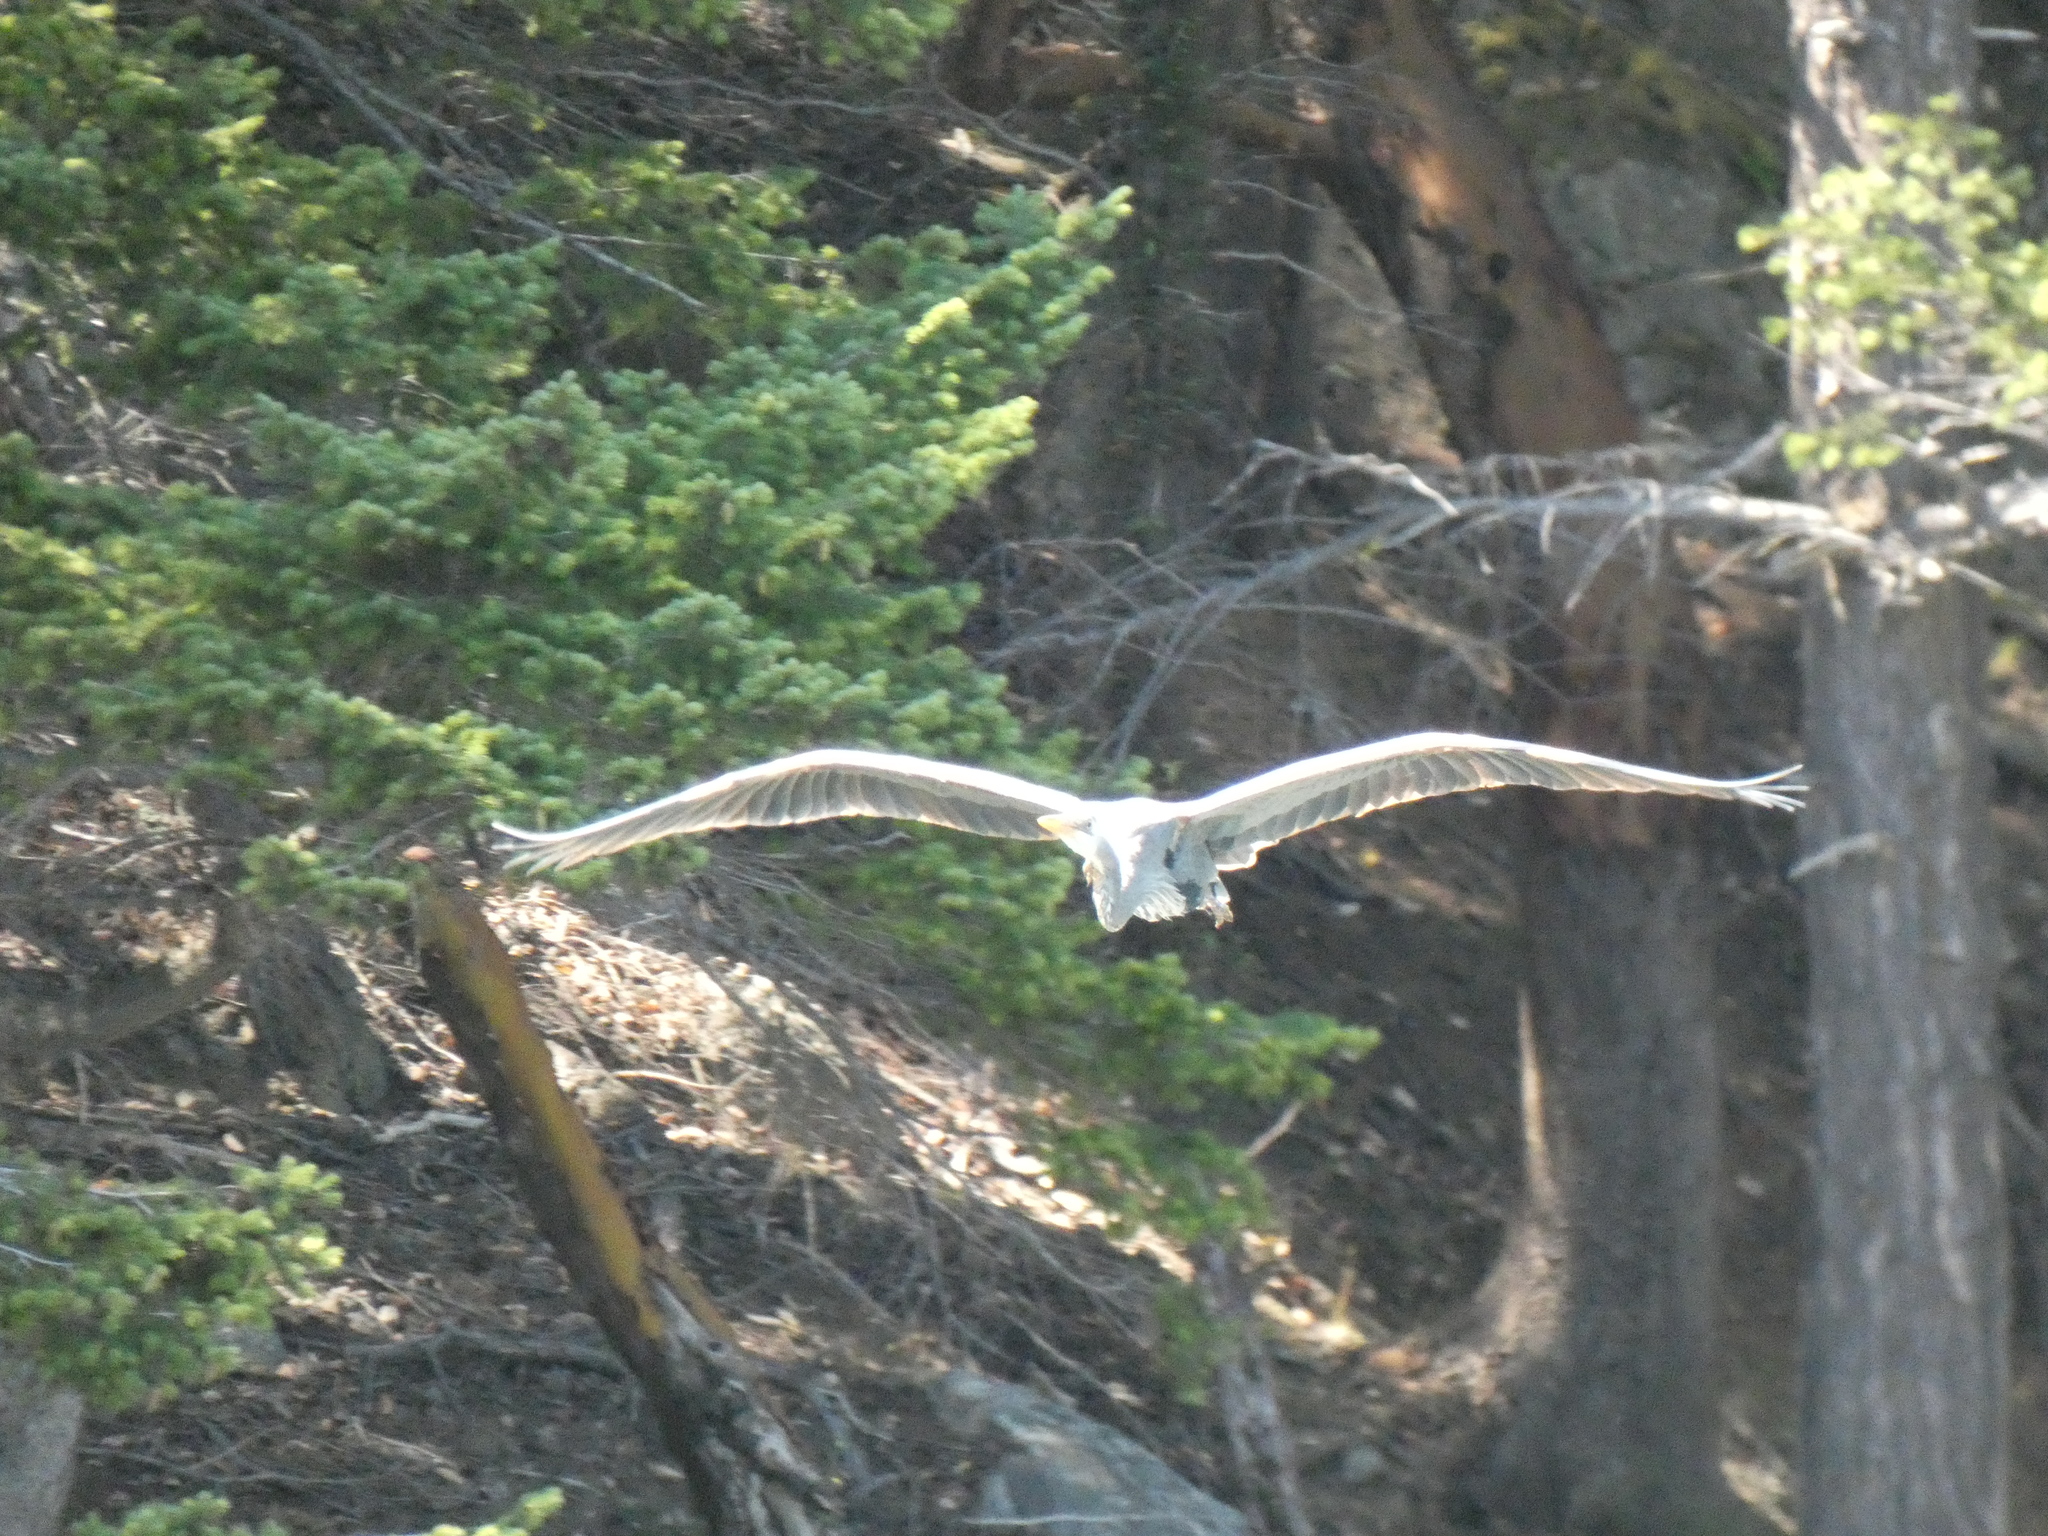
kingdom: Animalia
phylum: Chordata
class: Aves
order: Pelecaniformes
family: Ardeidae
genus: Ardea
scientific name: Ardea herodias
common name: Great blue heron
